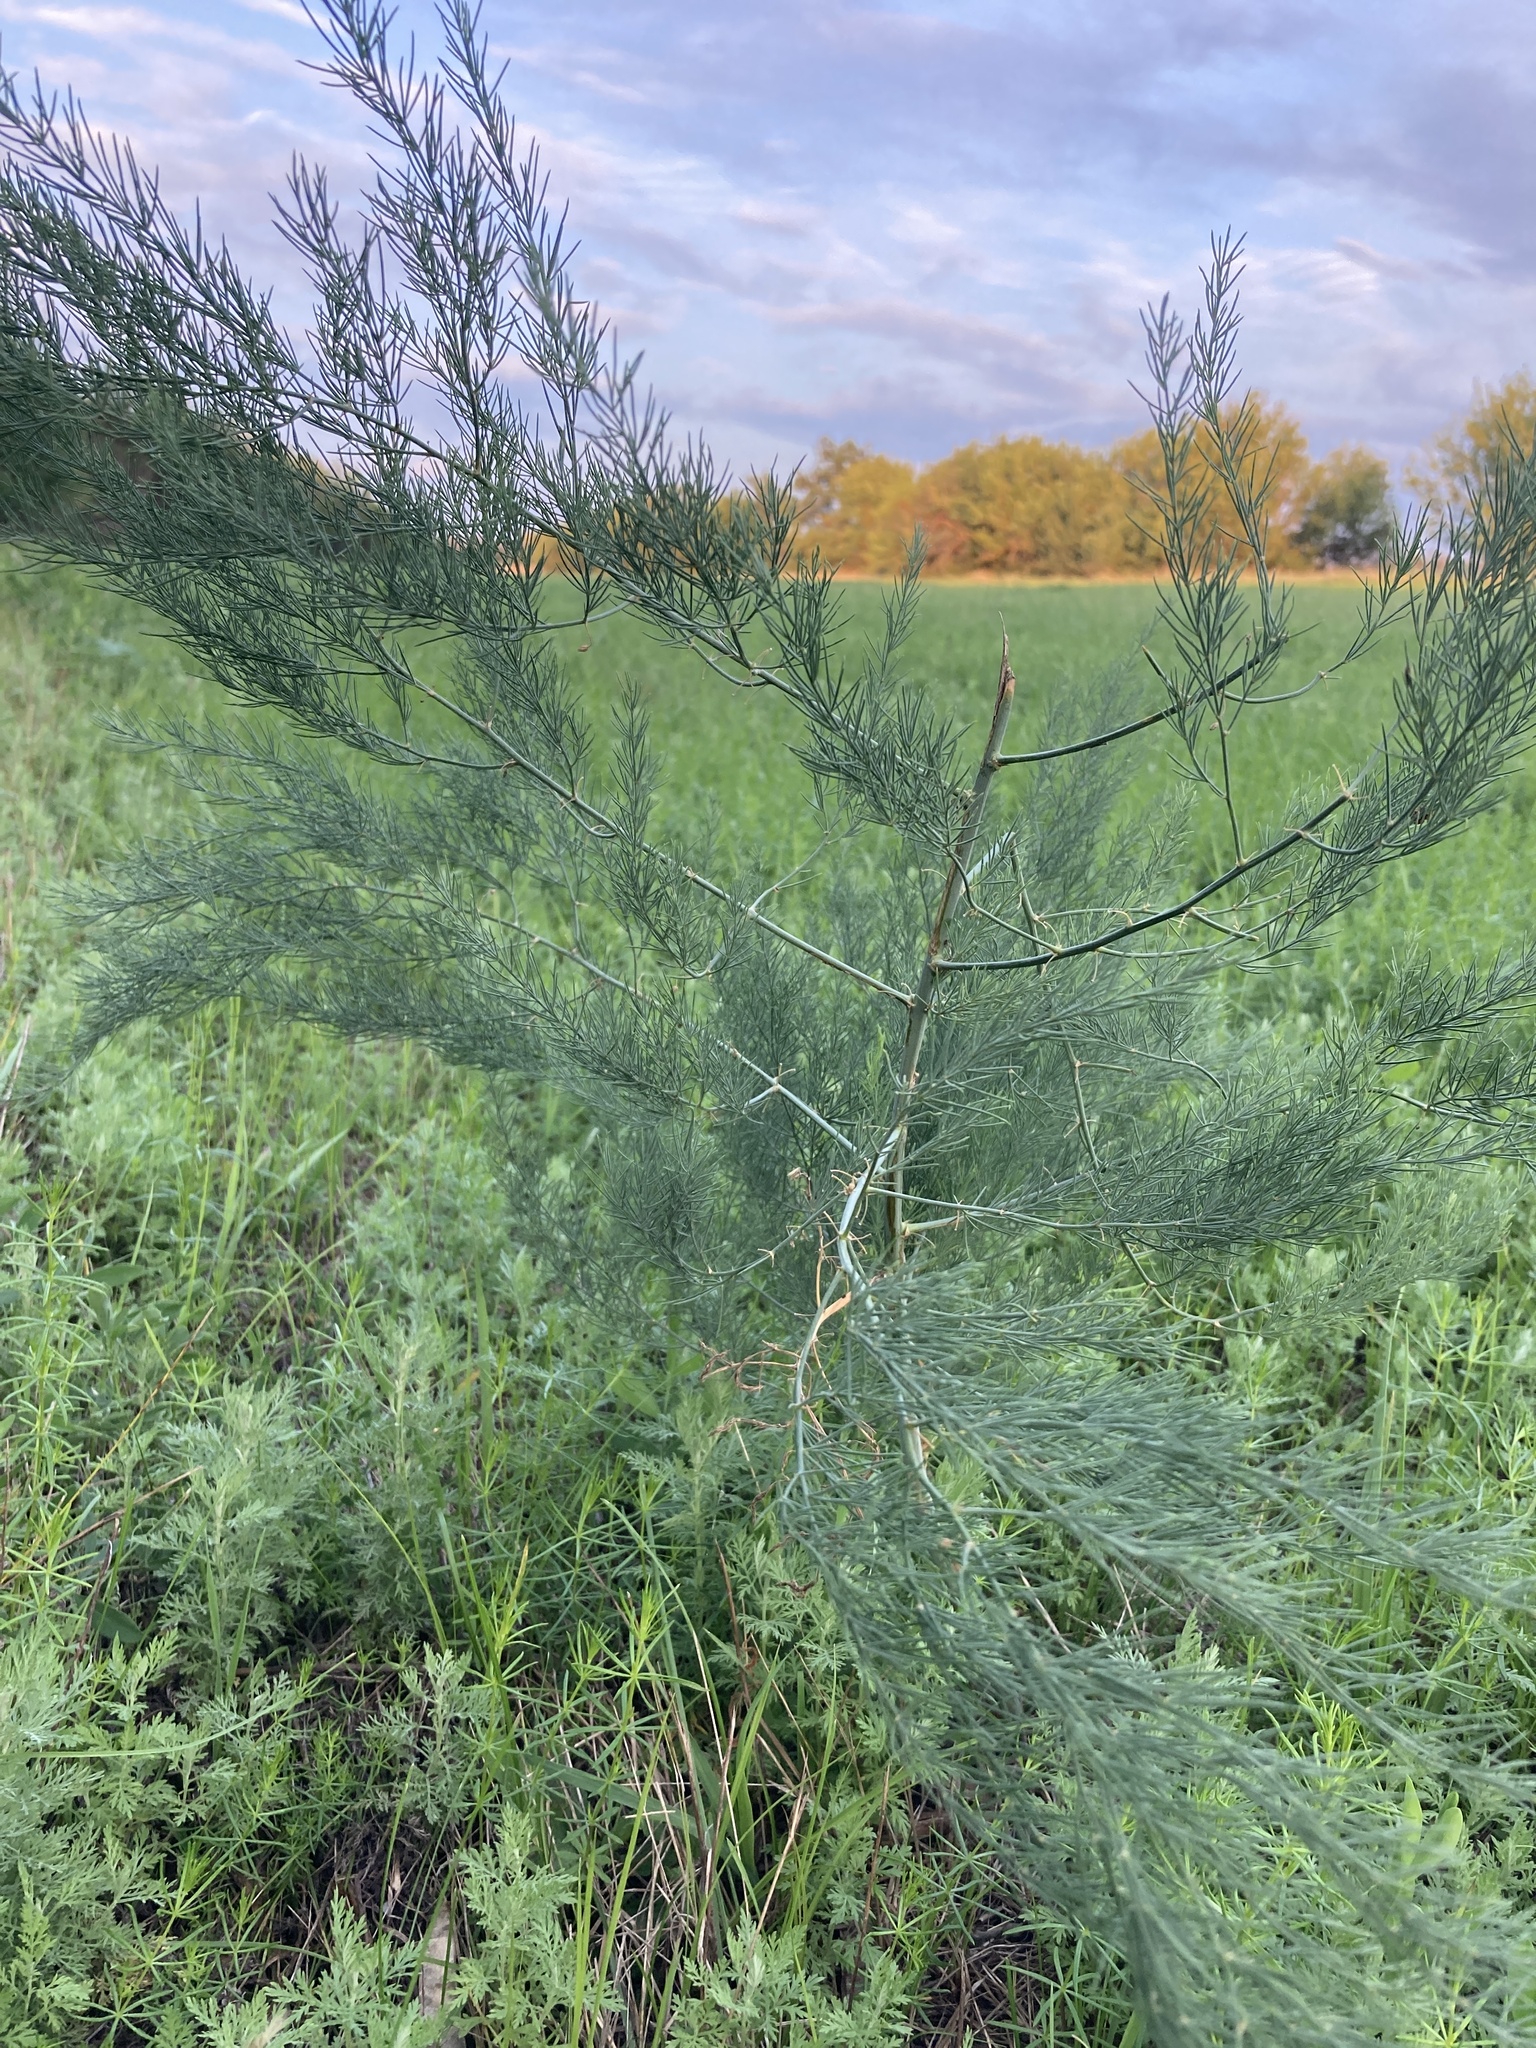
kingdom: Plantae
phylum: Tracheophyta
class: Liliopsida
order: Asparagales
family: Asparagaceae
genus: Asparagus
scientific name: Asparagus officinalis
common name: Garden asparagus
